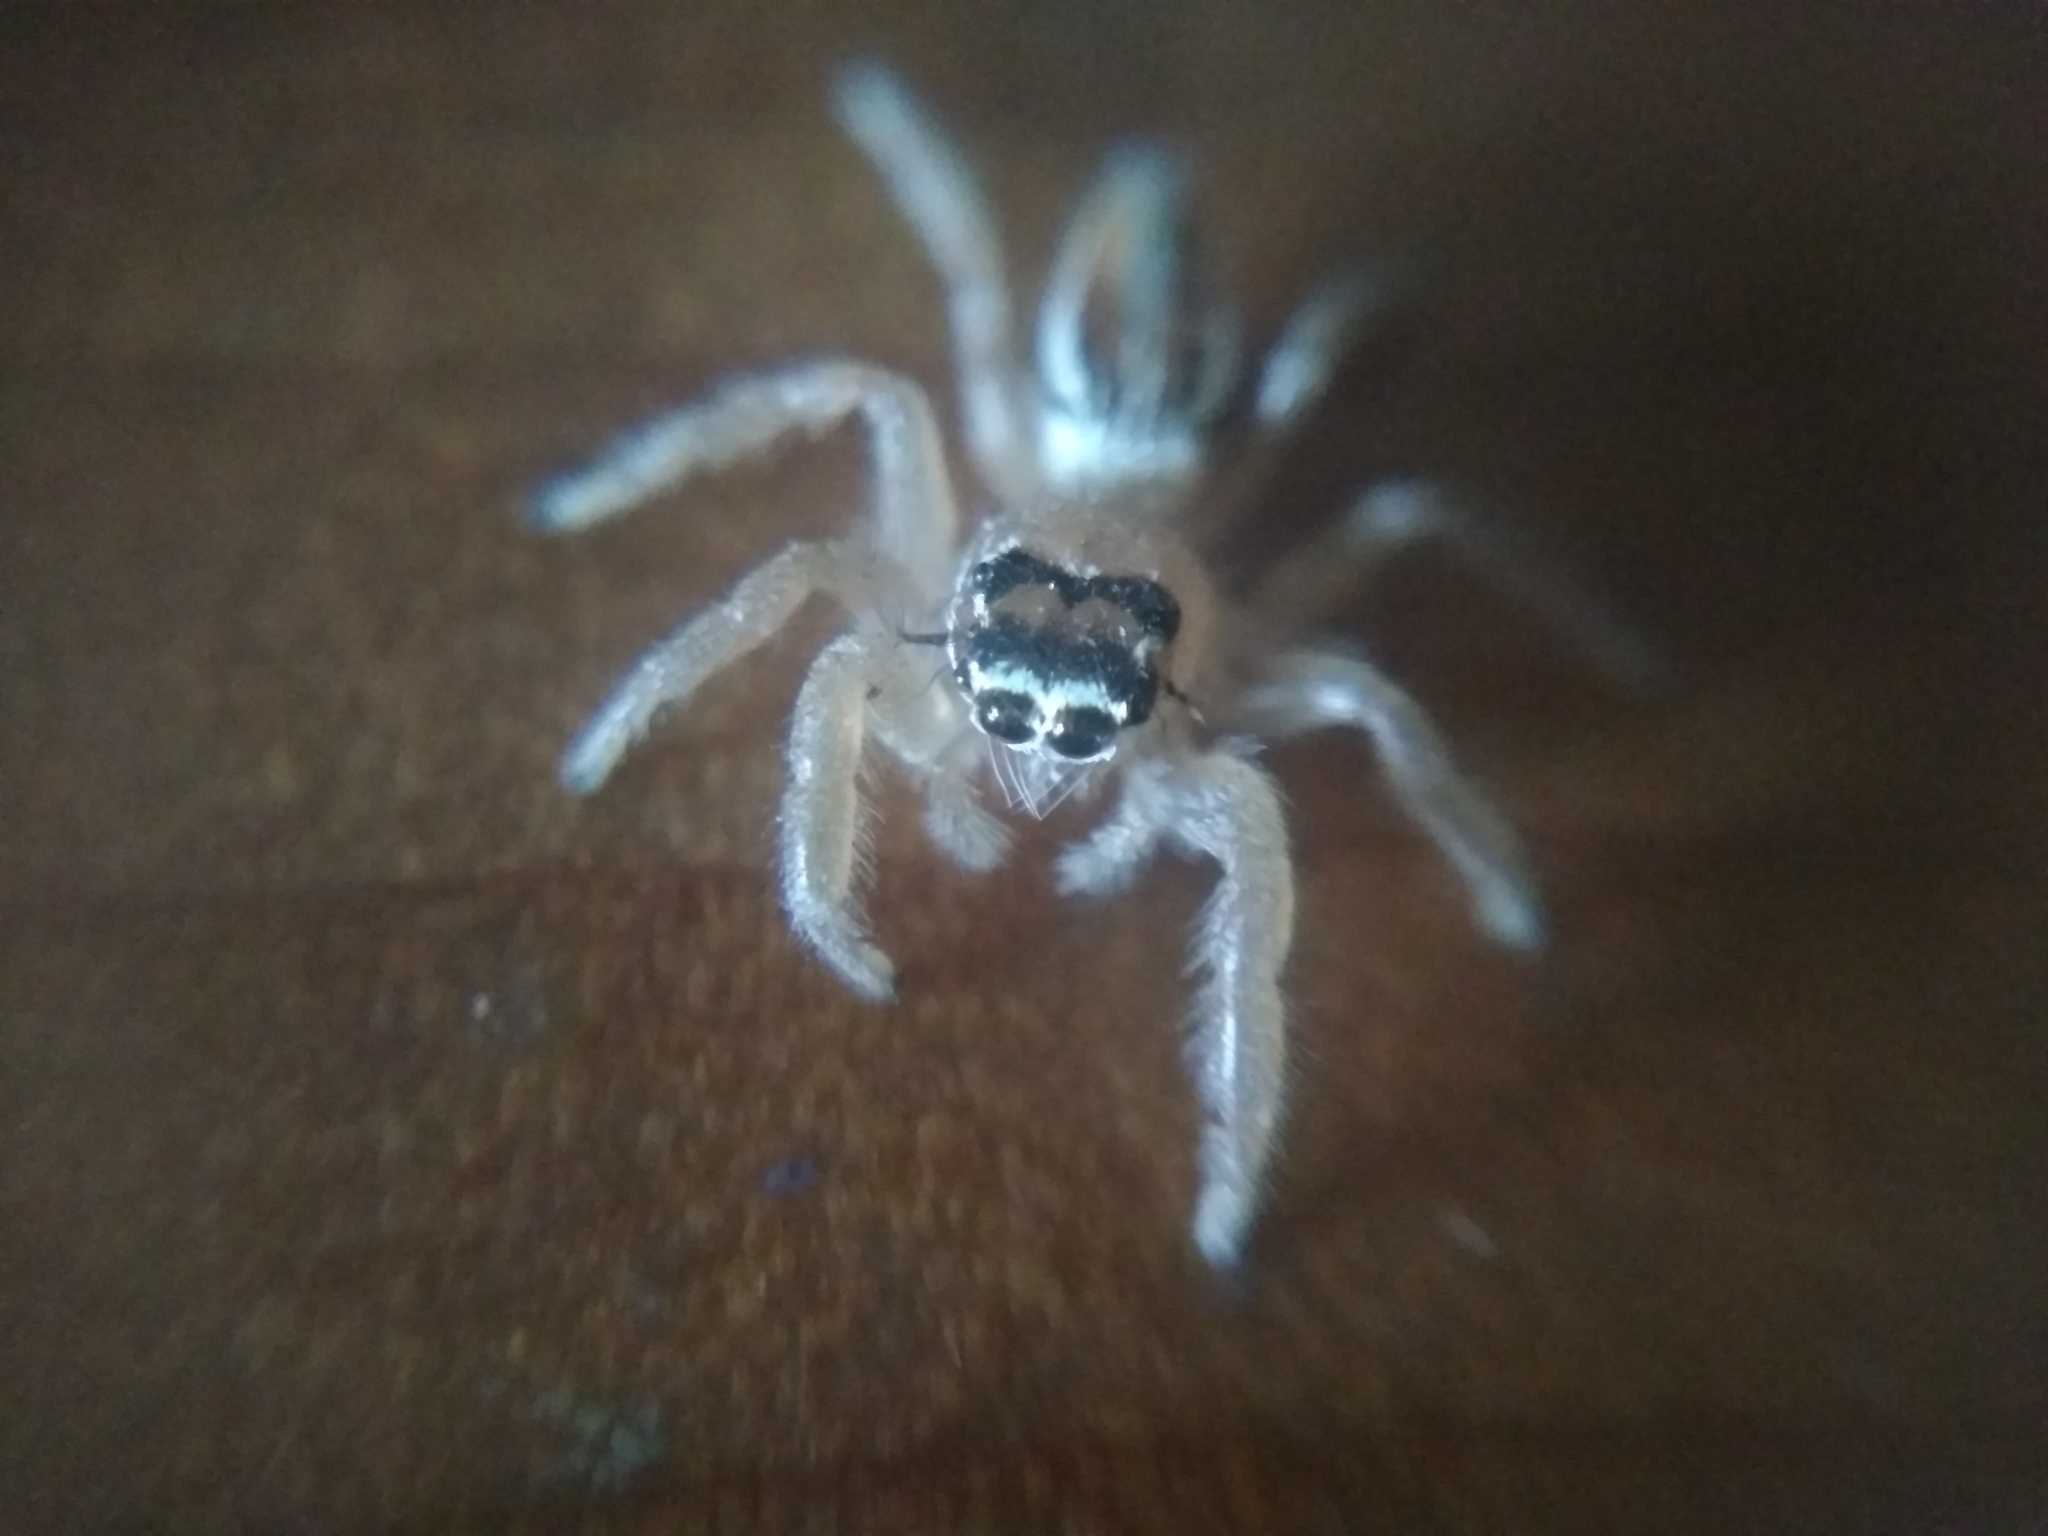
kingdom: Animalia
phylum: Arthropoda
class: Arachnida
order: Araneae
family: Salticidae
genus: Thyene
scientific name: Thyene inflata
